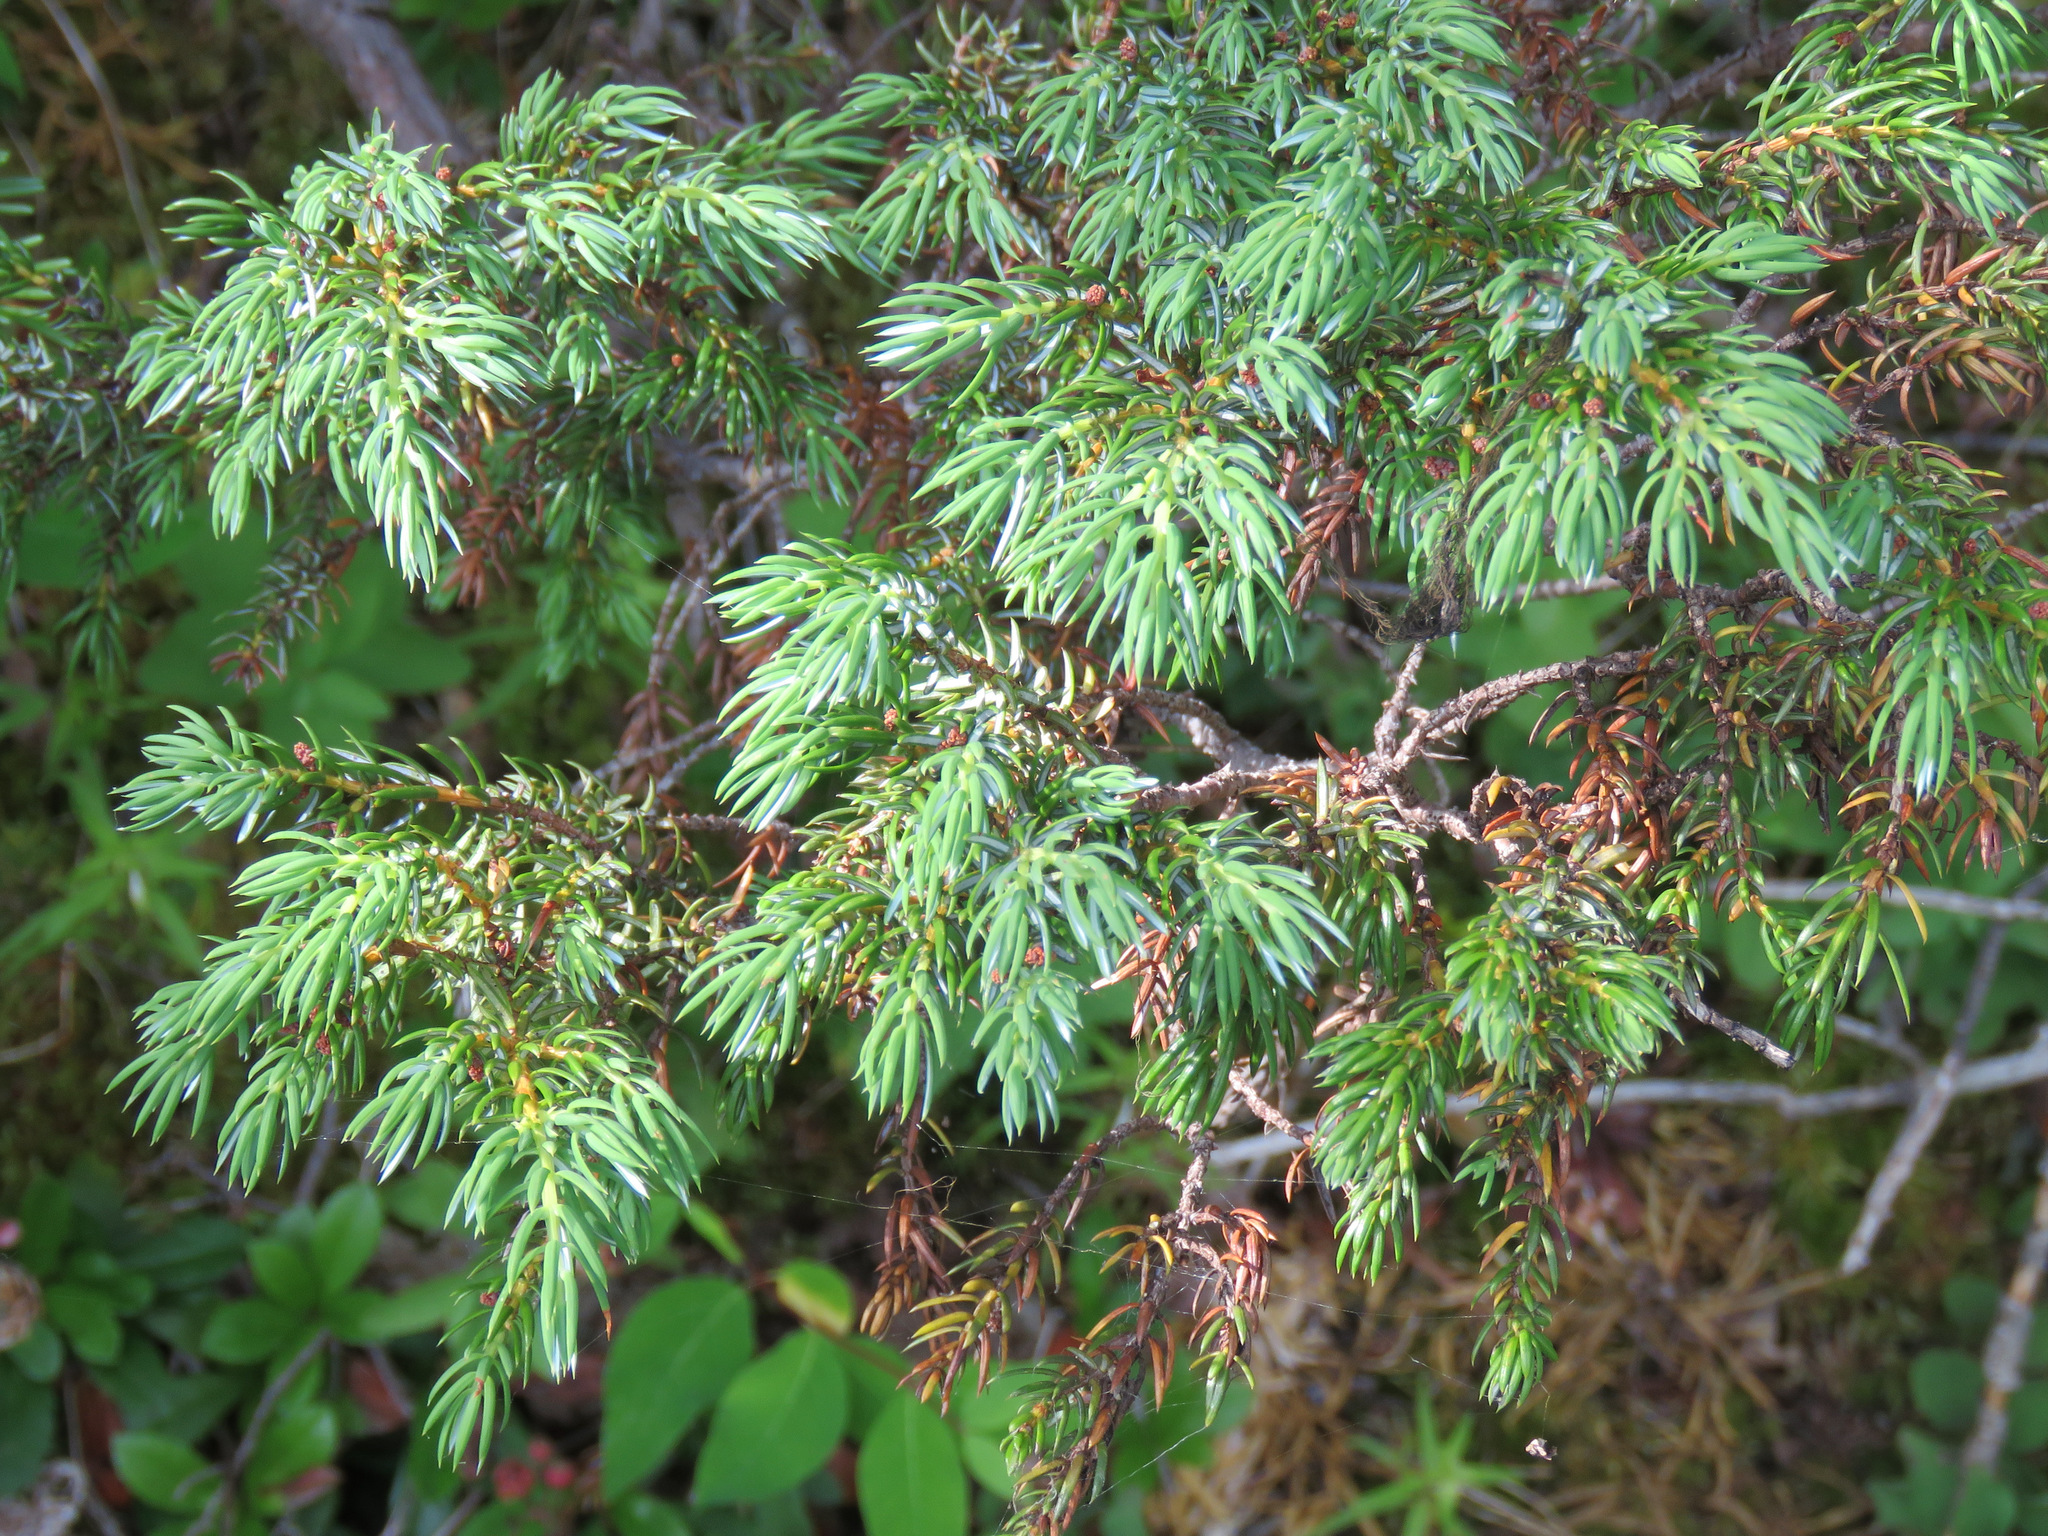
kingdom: Plantae
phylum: Tracheophyta
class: Pinopsida
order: Pinales
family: Cupressaceae
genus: Juniperus
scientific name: Juniperus communis
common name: Common juniper
